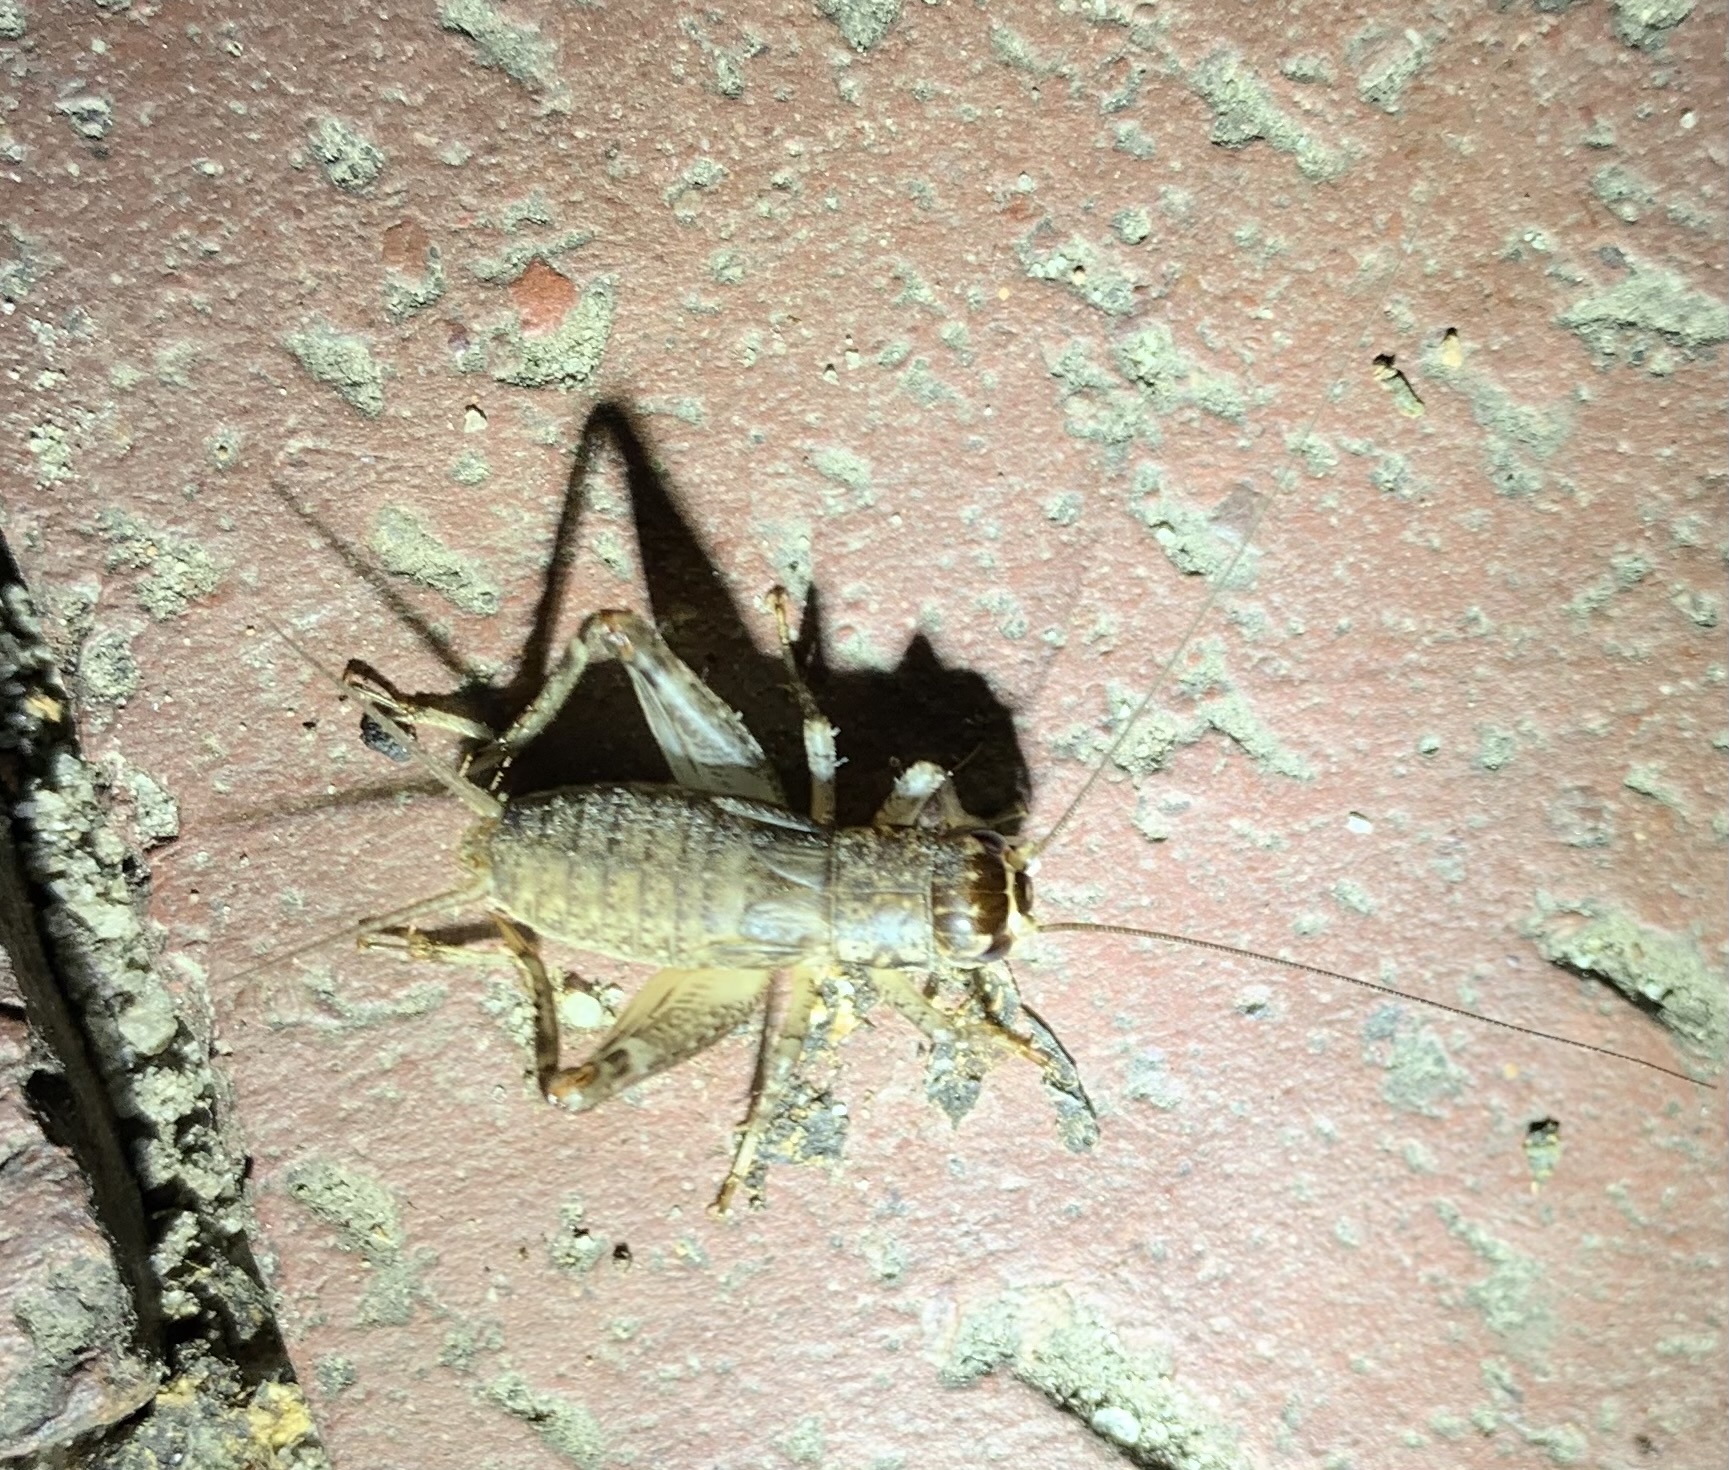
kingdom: Animalia
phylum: Arthropoda
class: Insecta
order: Orthoptera
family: Gryllidae
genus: Velarifictorus
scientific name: Velarifictorus micado
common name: Japanese burrowing cricket
